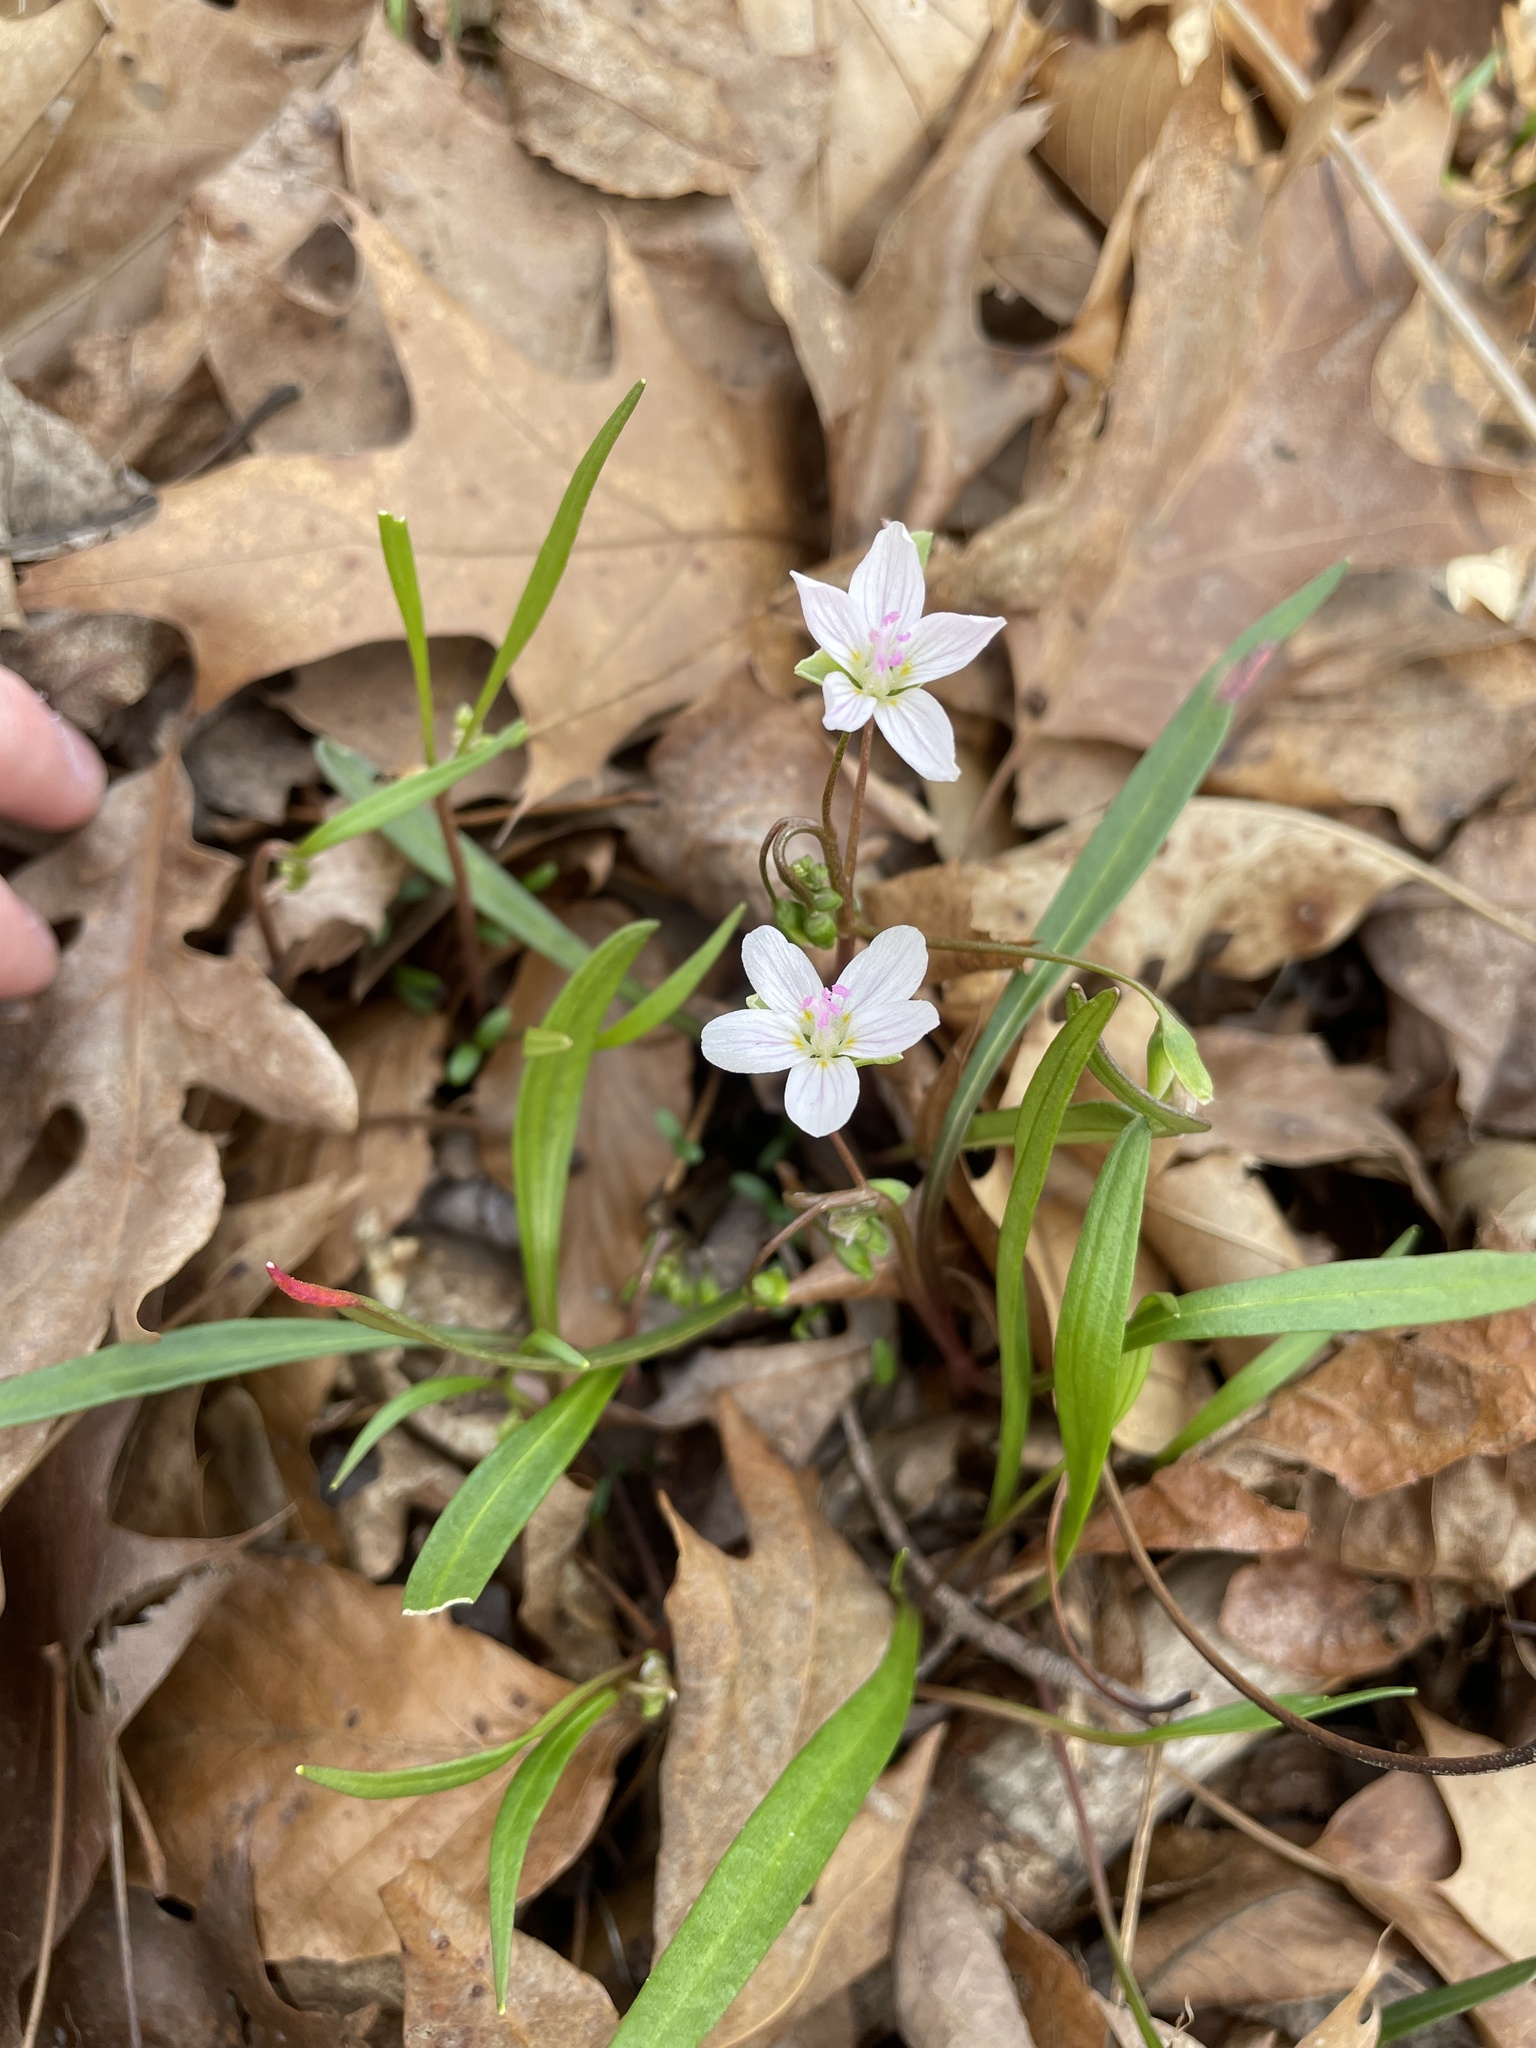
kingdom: Plantae
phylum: Tracheophyta
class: Magnoliopsida
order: Caryophyllales
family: Montiaceae
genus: Claytonia
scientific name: Claytonia virginica
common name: Virginia springbeauty
